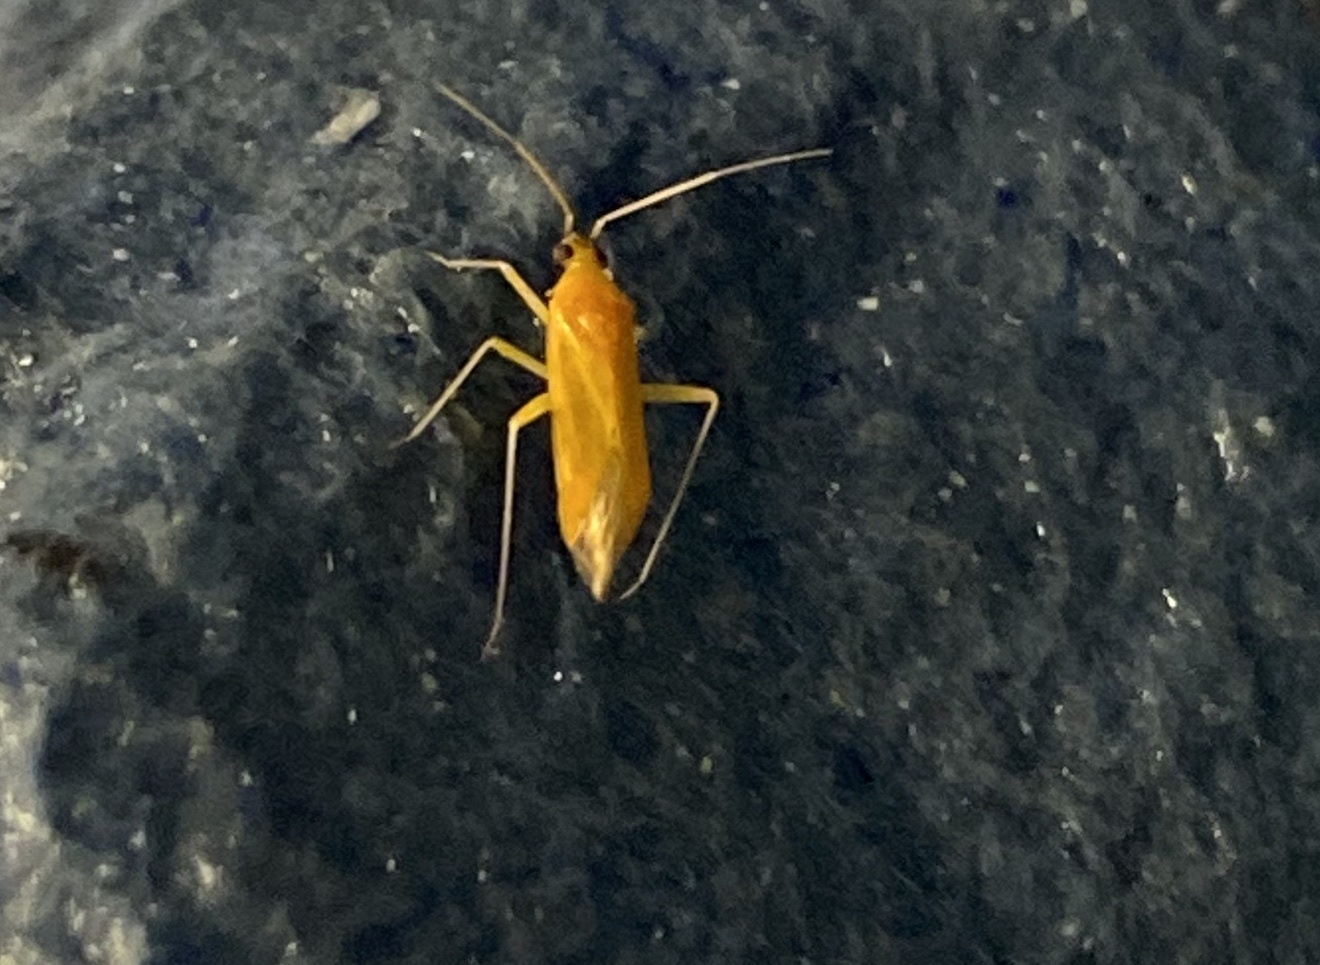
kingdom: Animalia
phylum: Arthropoda
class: Insecta
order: Hemiptera
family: Miridae
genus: Phylus
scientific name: Phylus melanocephalus
